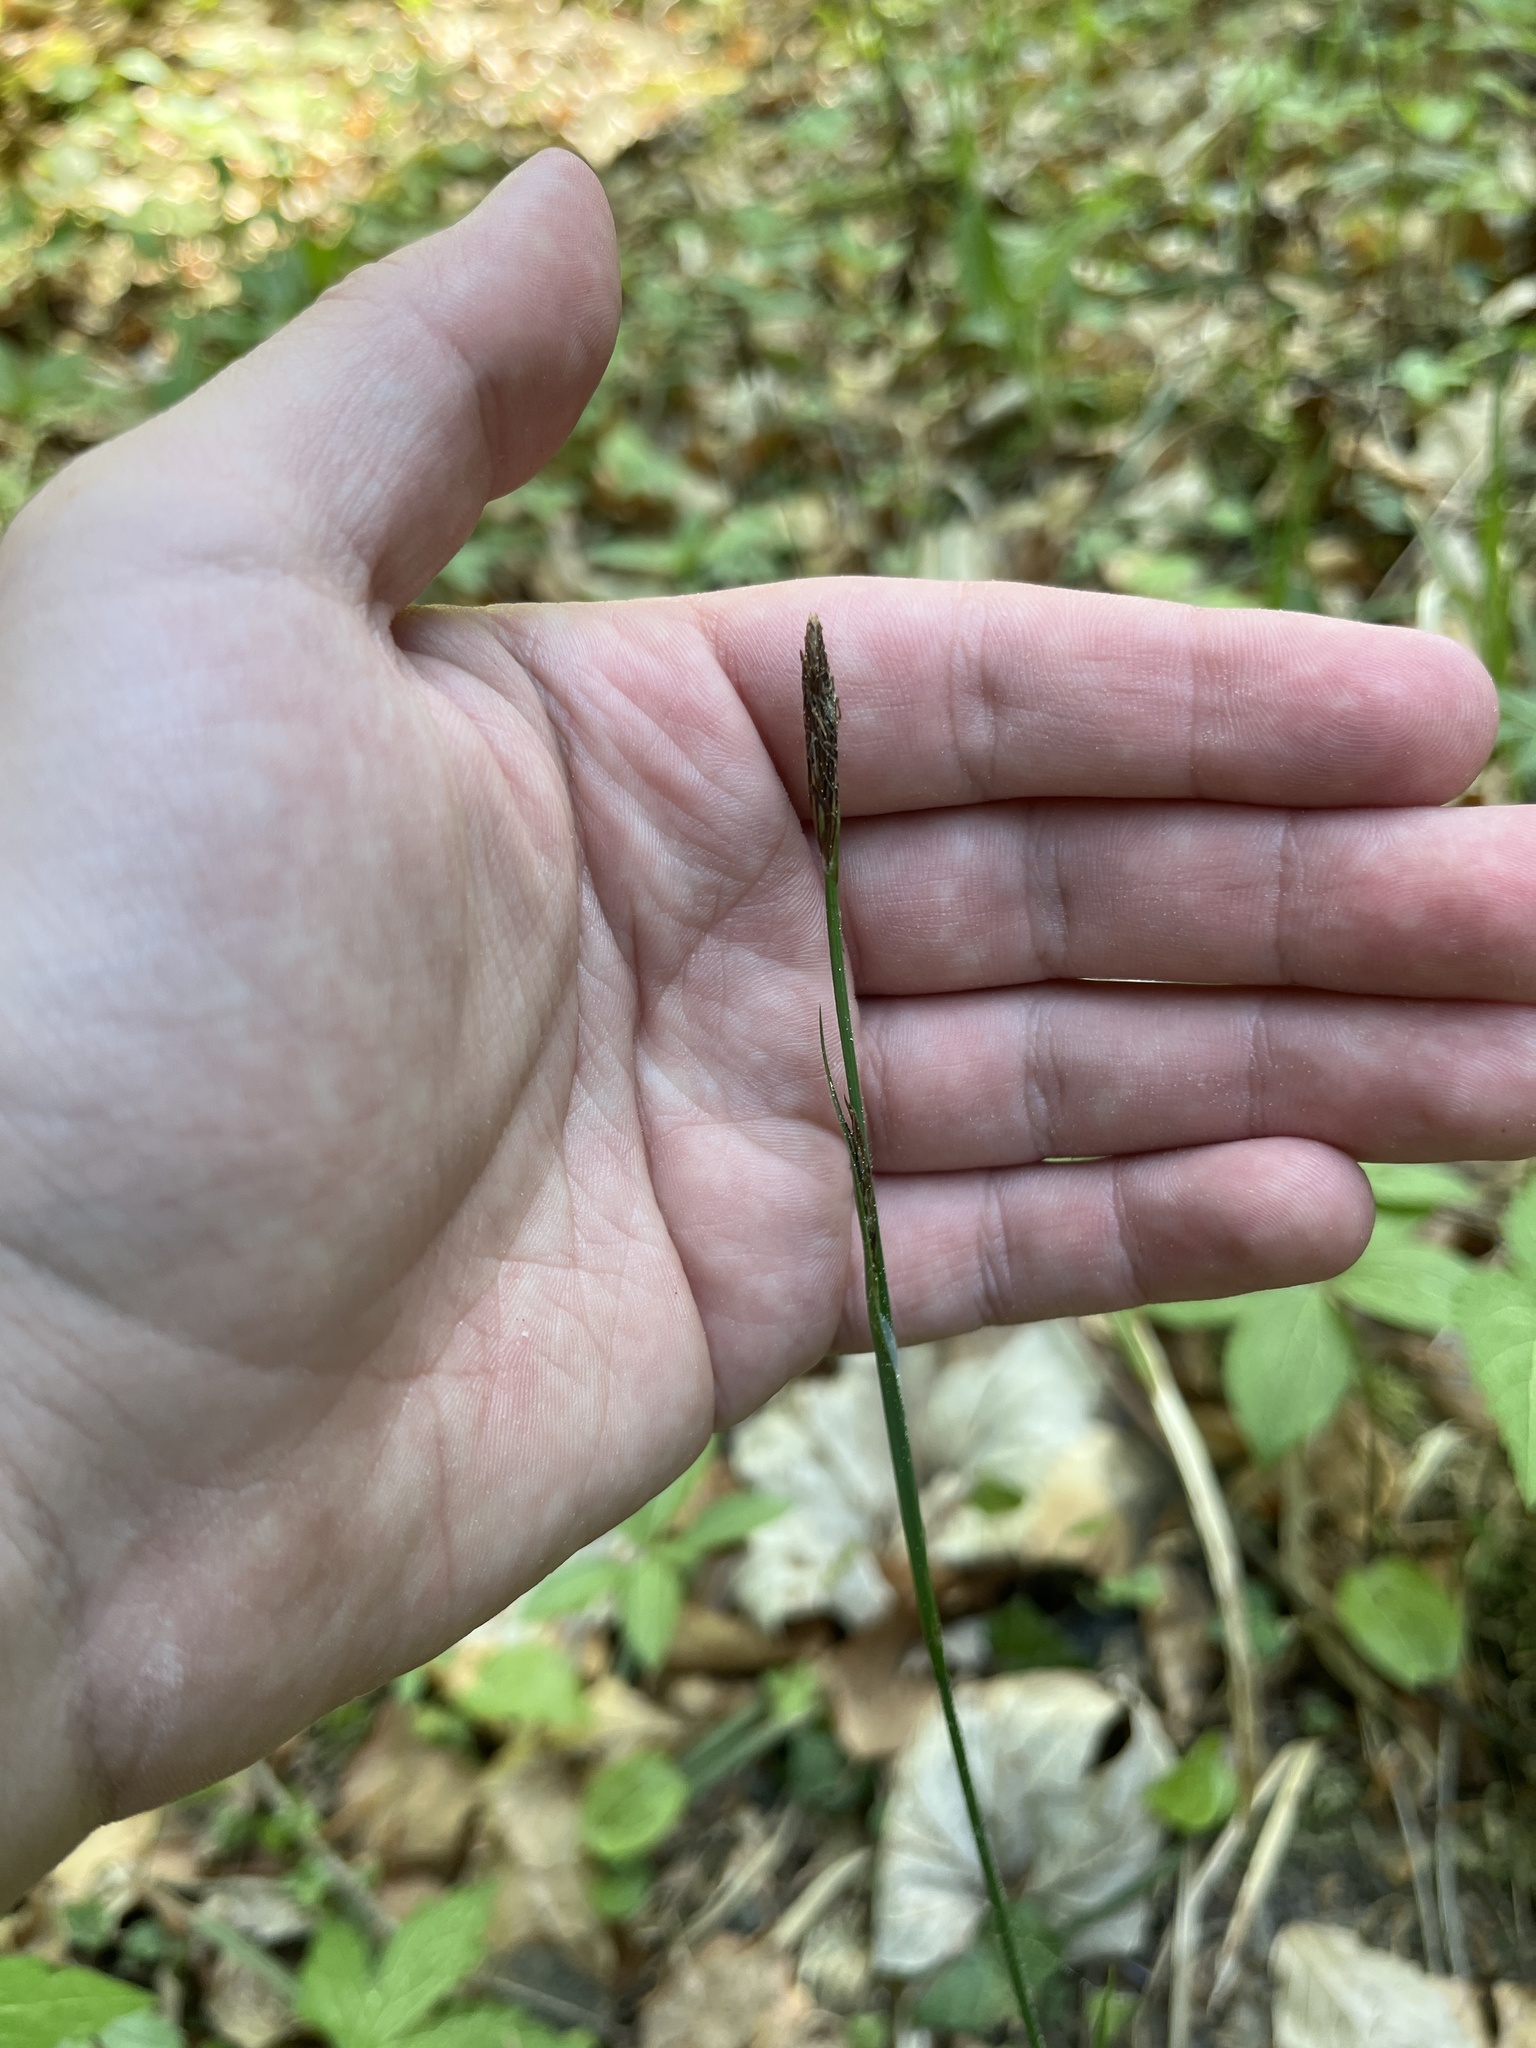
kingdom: Plantae
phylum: Tracheophyta
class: Liliopsida
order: Poales
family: Cyperaceae
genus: Carex
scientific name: Carex pilosa
